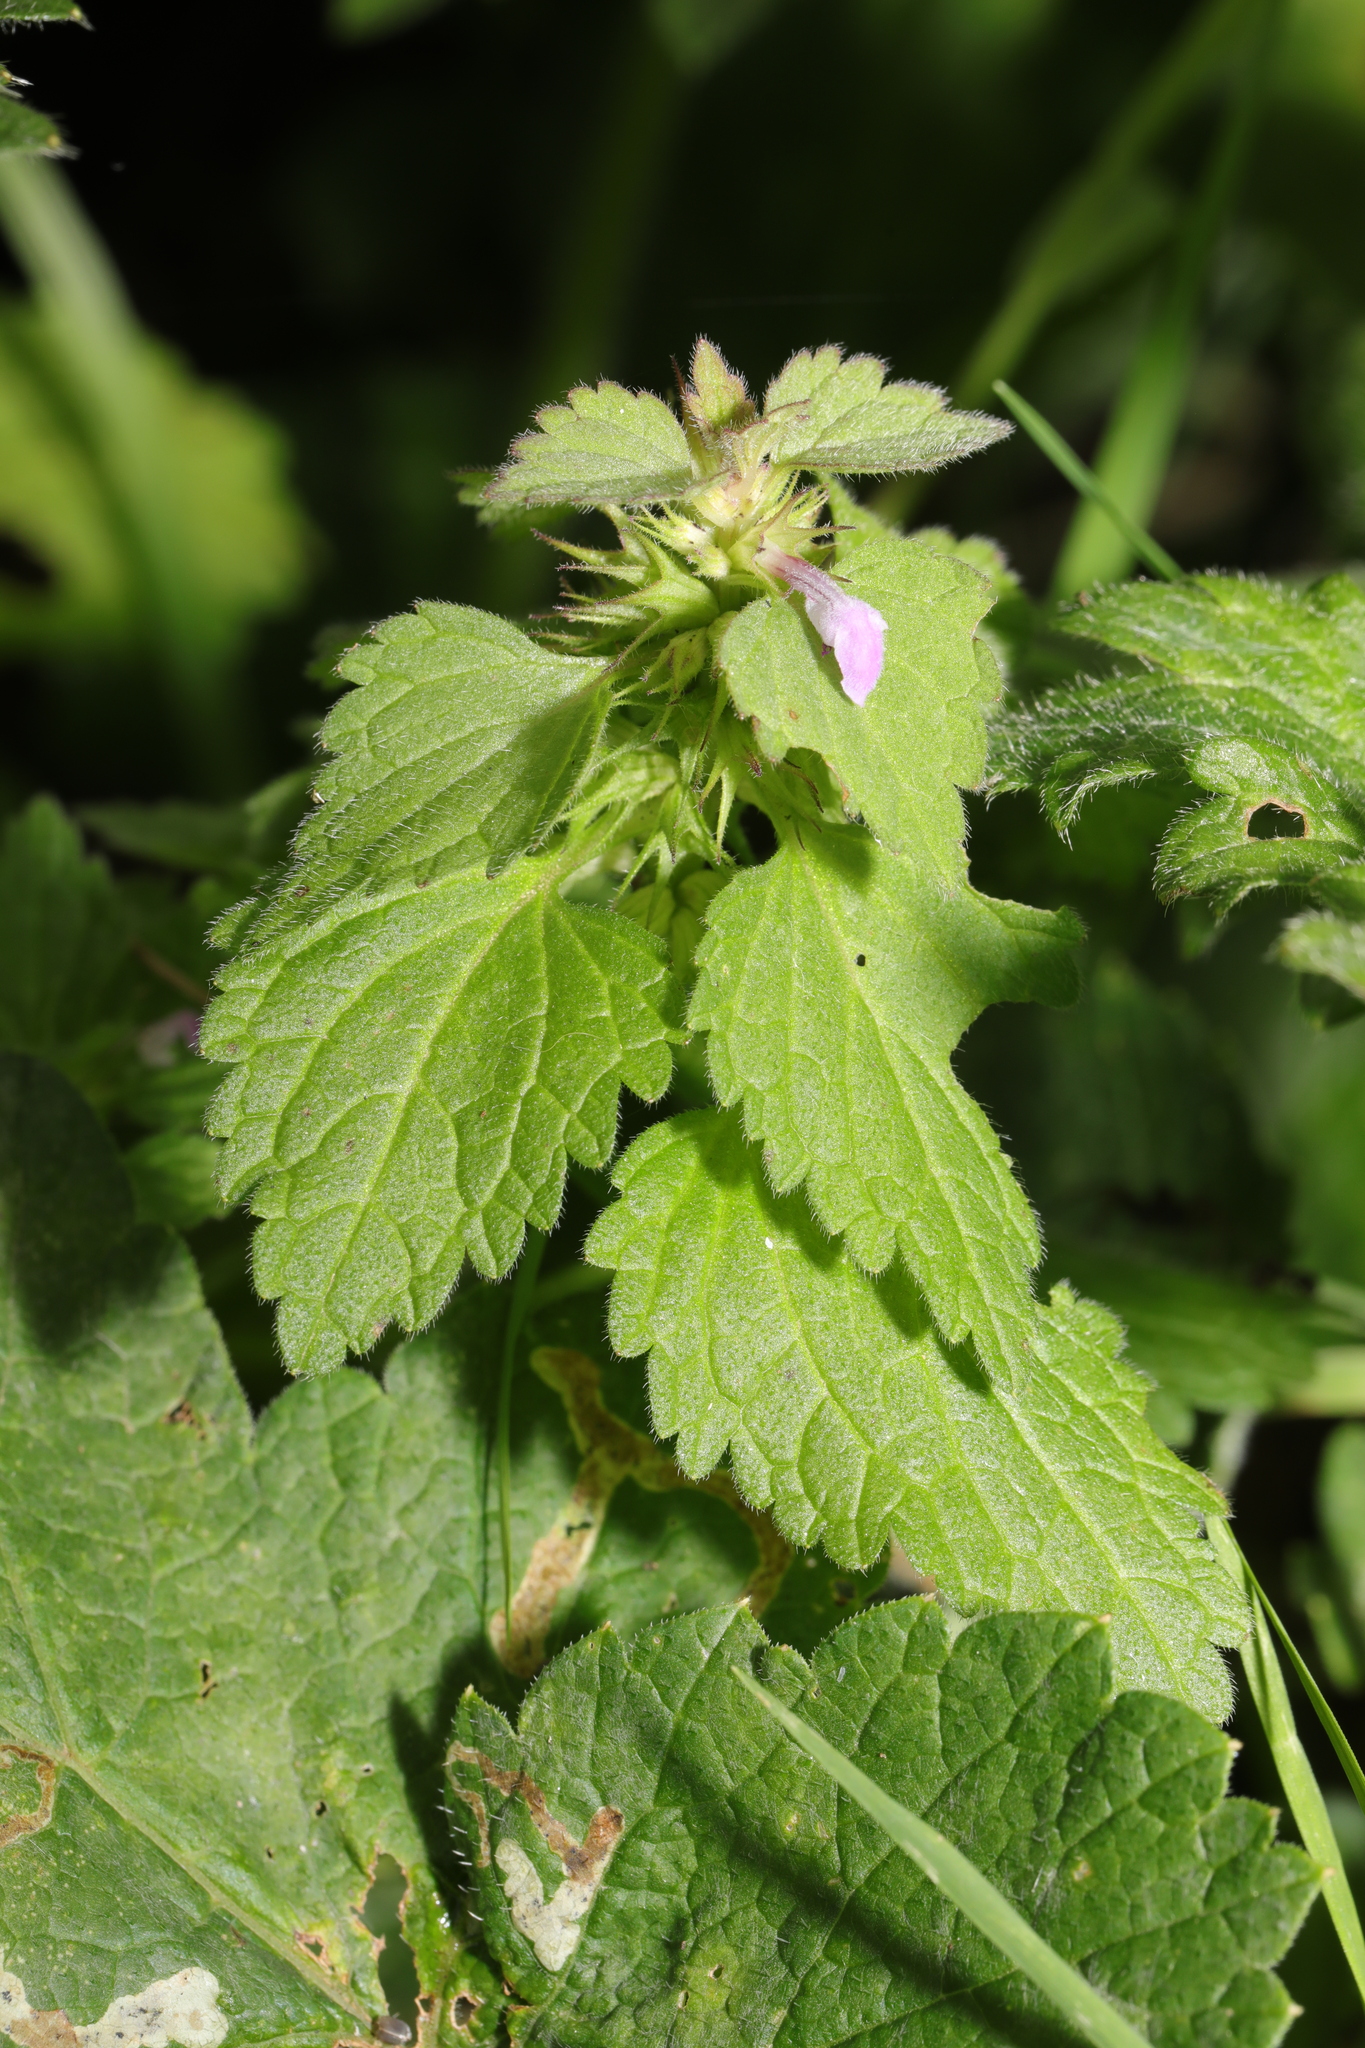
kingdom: Plantae
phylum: Tracheophyta
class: Magnoliopsida
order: Lamiales
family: Lamiaceae
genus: Lamium
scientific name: Lamium purpureum
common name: Red dead-nettle
